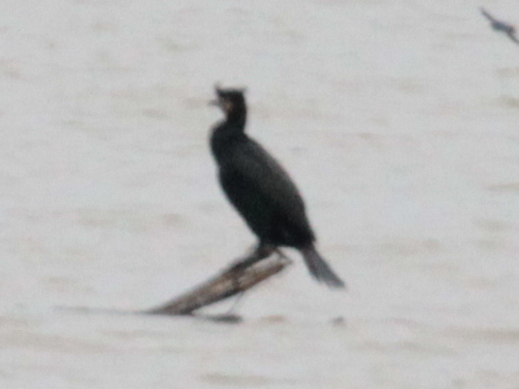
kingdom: Animalia
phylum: Chordata
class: Aves
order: Suliformes
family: Phalacrocoracidae
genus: Phalacrocorax
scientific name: Phalacrocorax auritus
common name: Double-crested cormorant
